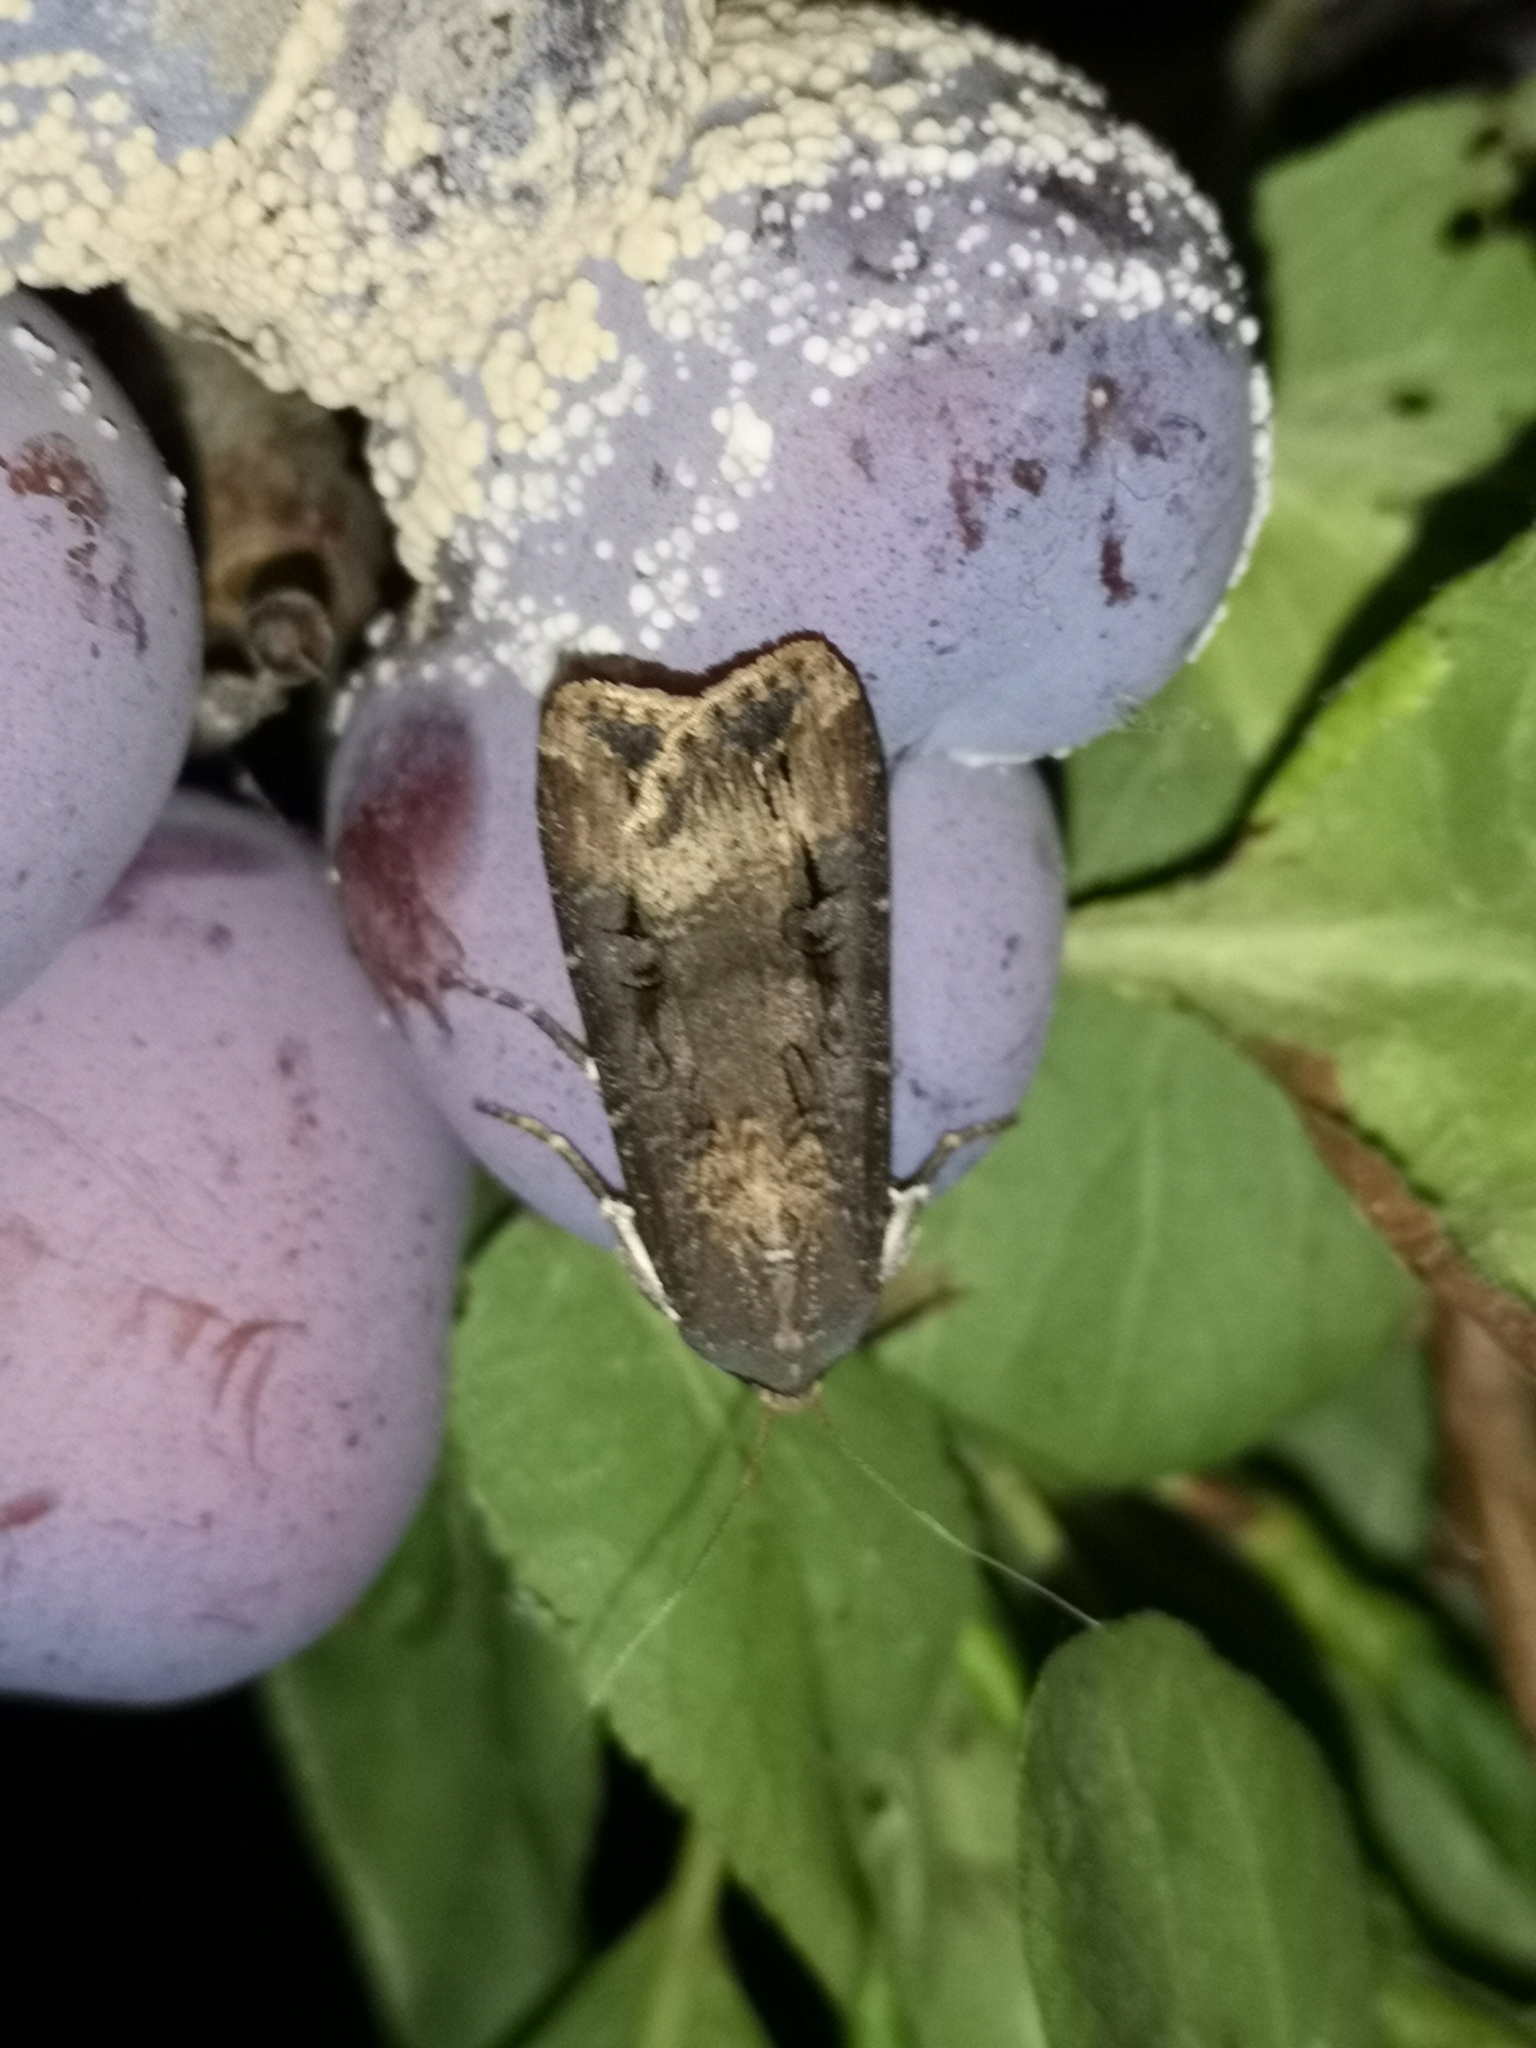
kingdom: Animalia
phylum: Arthropoda
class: Insecta
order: Lepidoptera
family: Noctuidae
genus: Agrotis
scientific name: Agrotis ipsilon
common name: Dark sword-grass
